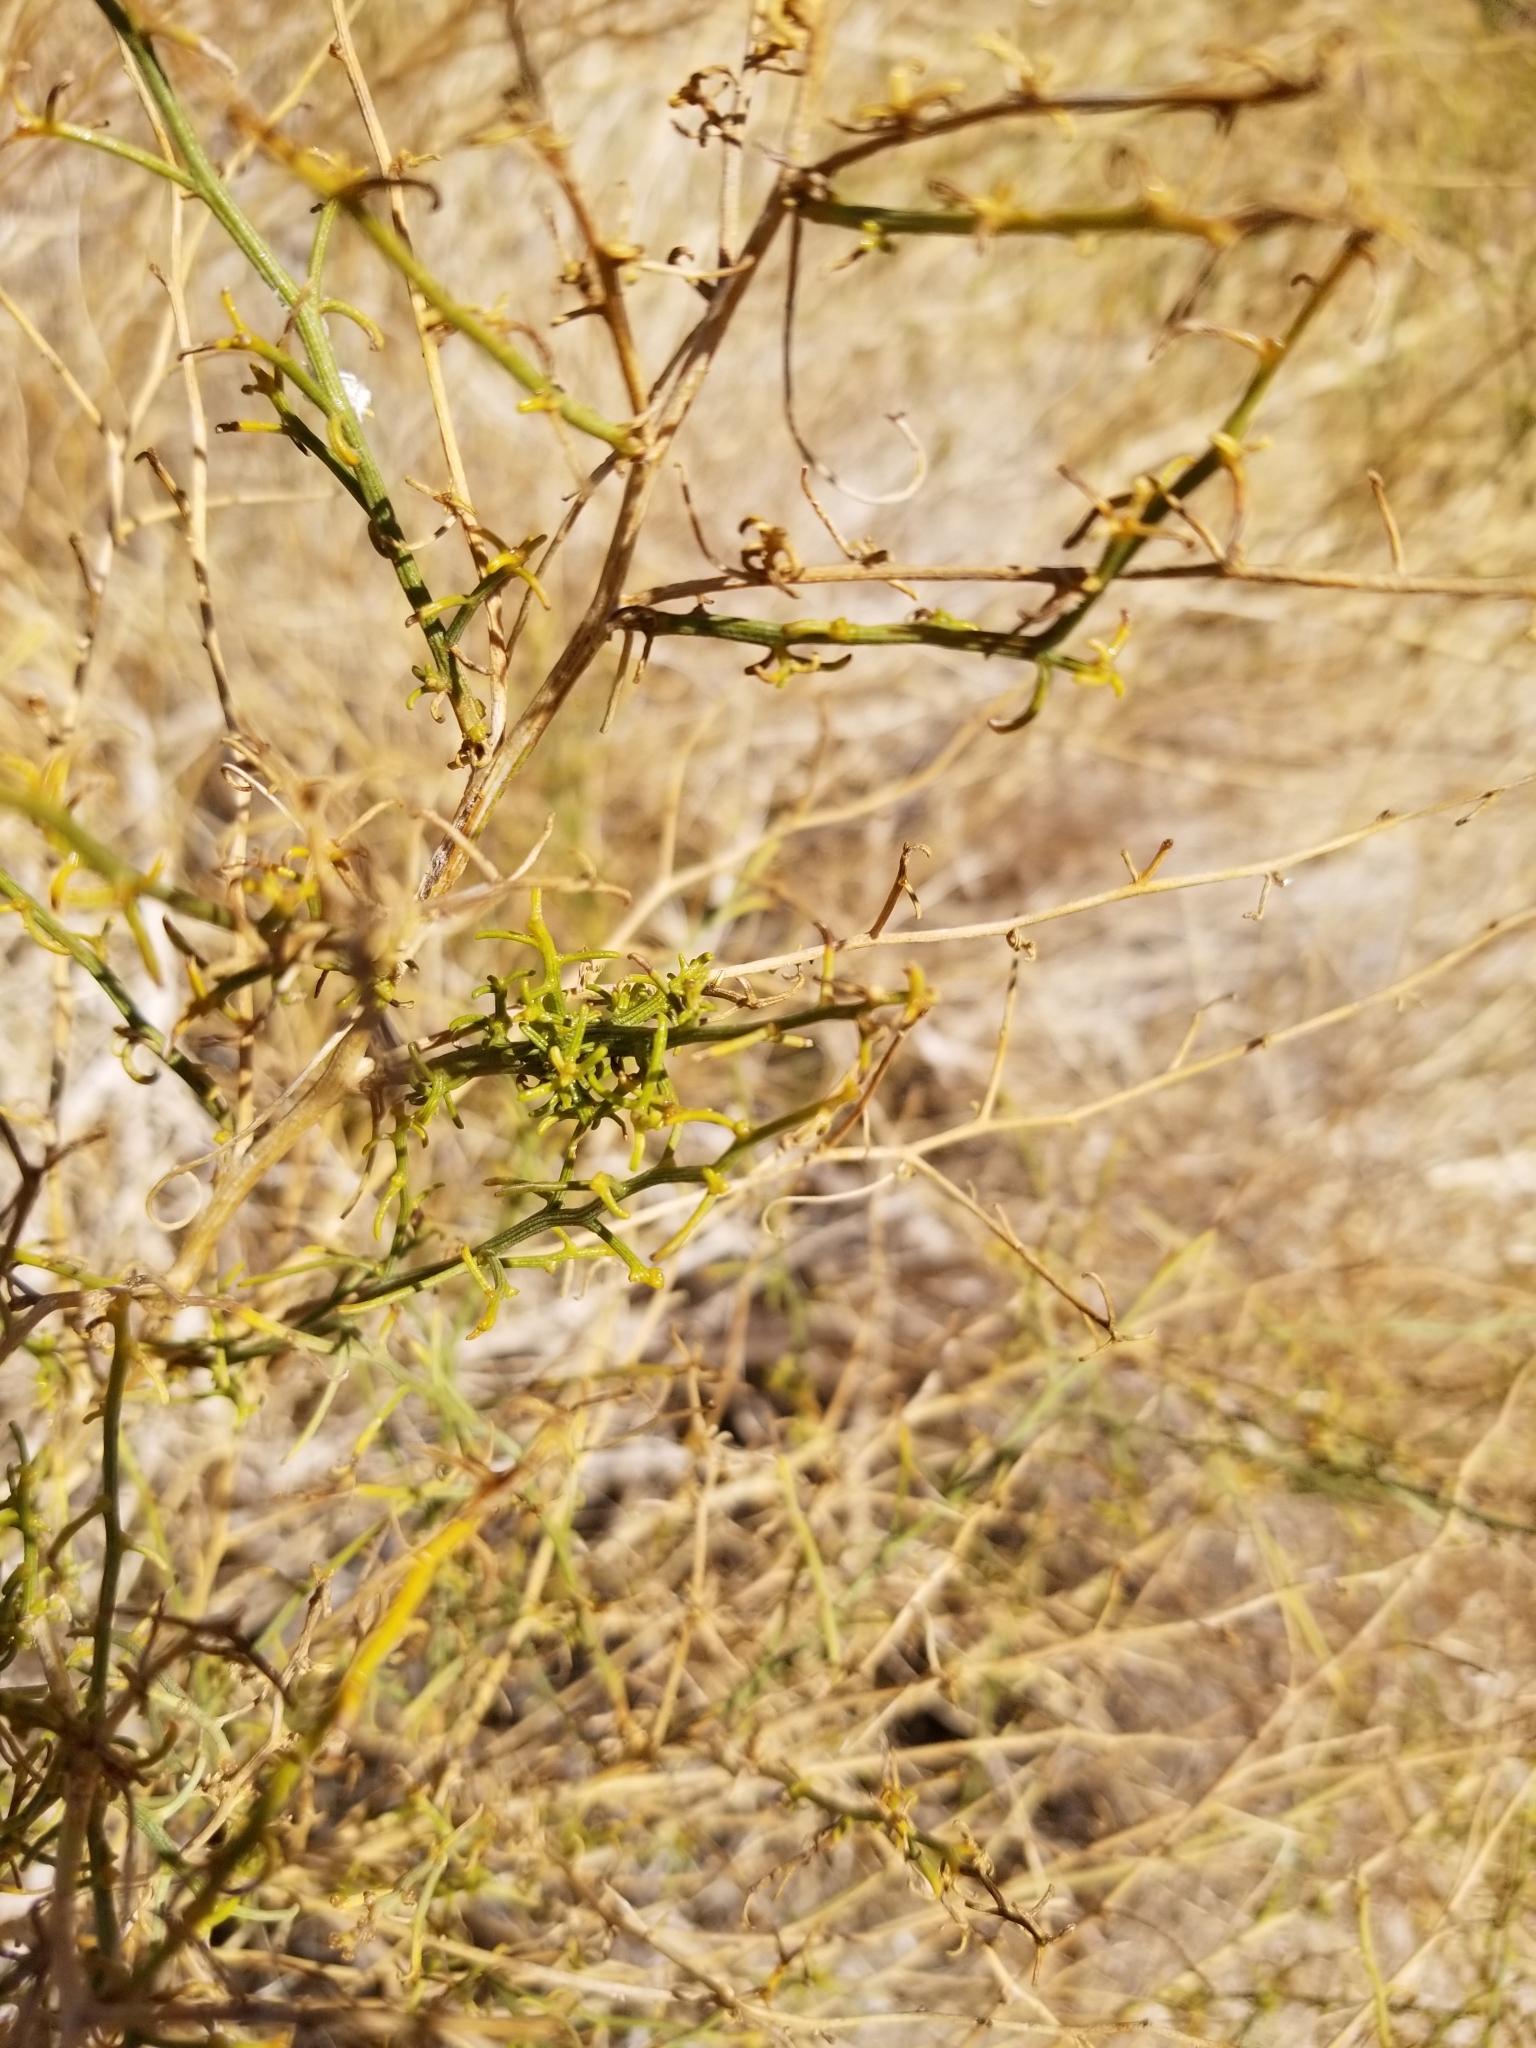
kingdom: Plantae
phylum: Tracheophyta
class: Magnoliopsida
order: Asterales
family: Asteraceae
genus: Ambrosia
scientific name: Ambrosia salsola
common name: Burrobrush
